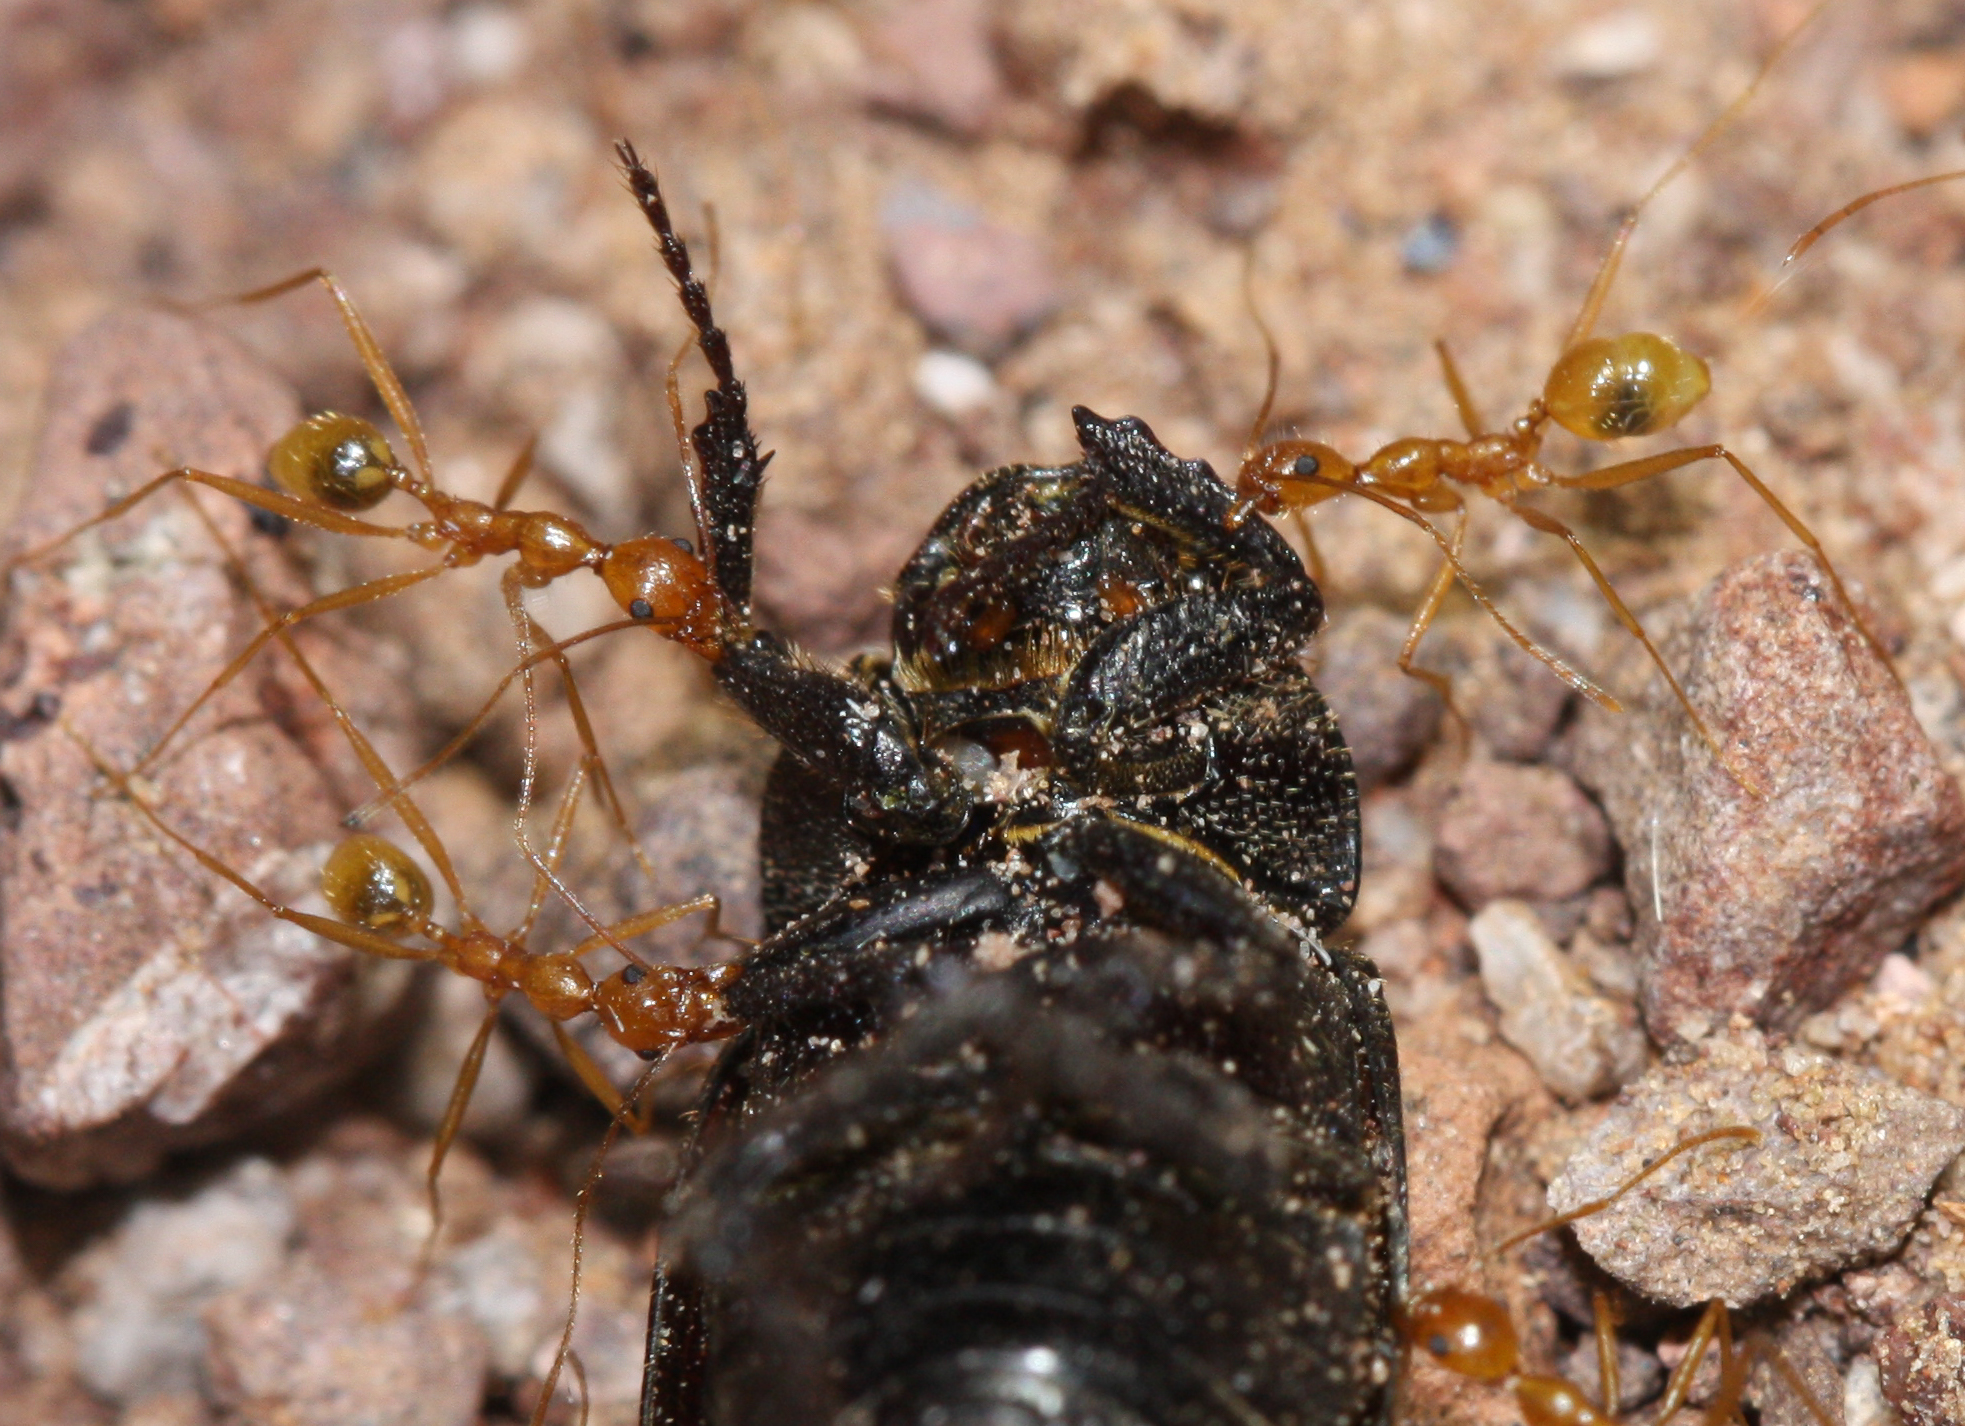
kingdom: Animalia
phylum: Arthropoda
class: Insecta
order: Hymenoptera
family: Formicidae
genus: Pheidole
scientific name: Pheidole vistana
